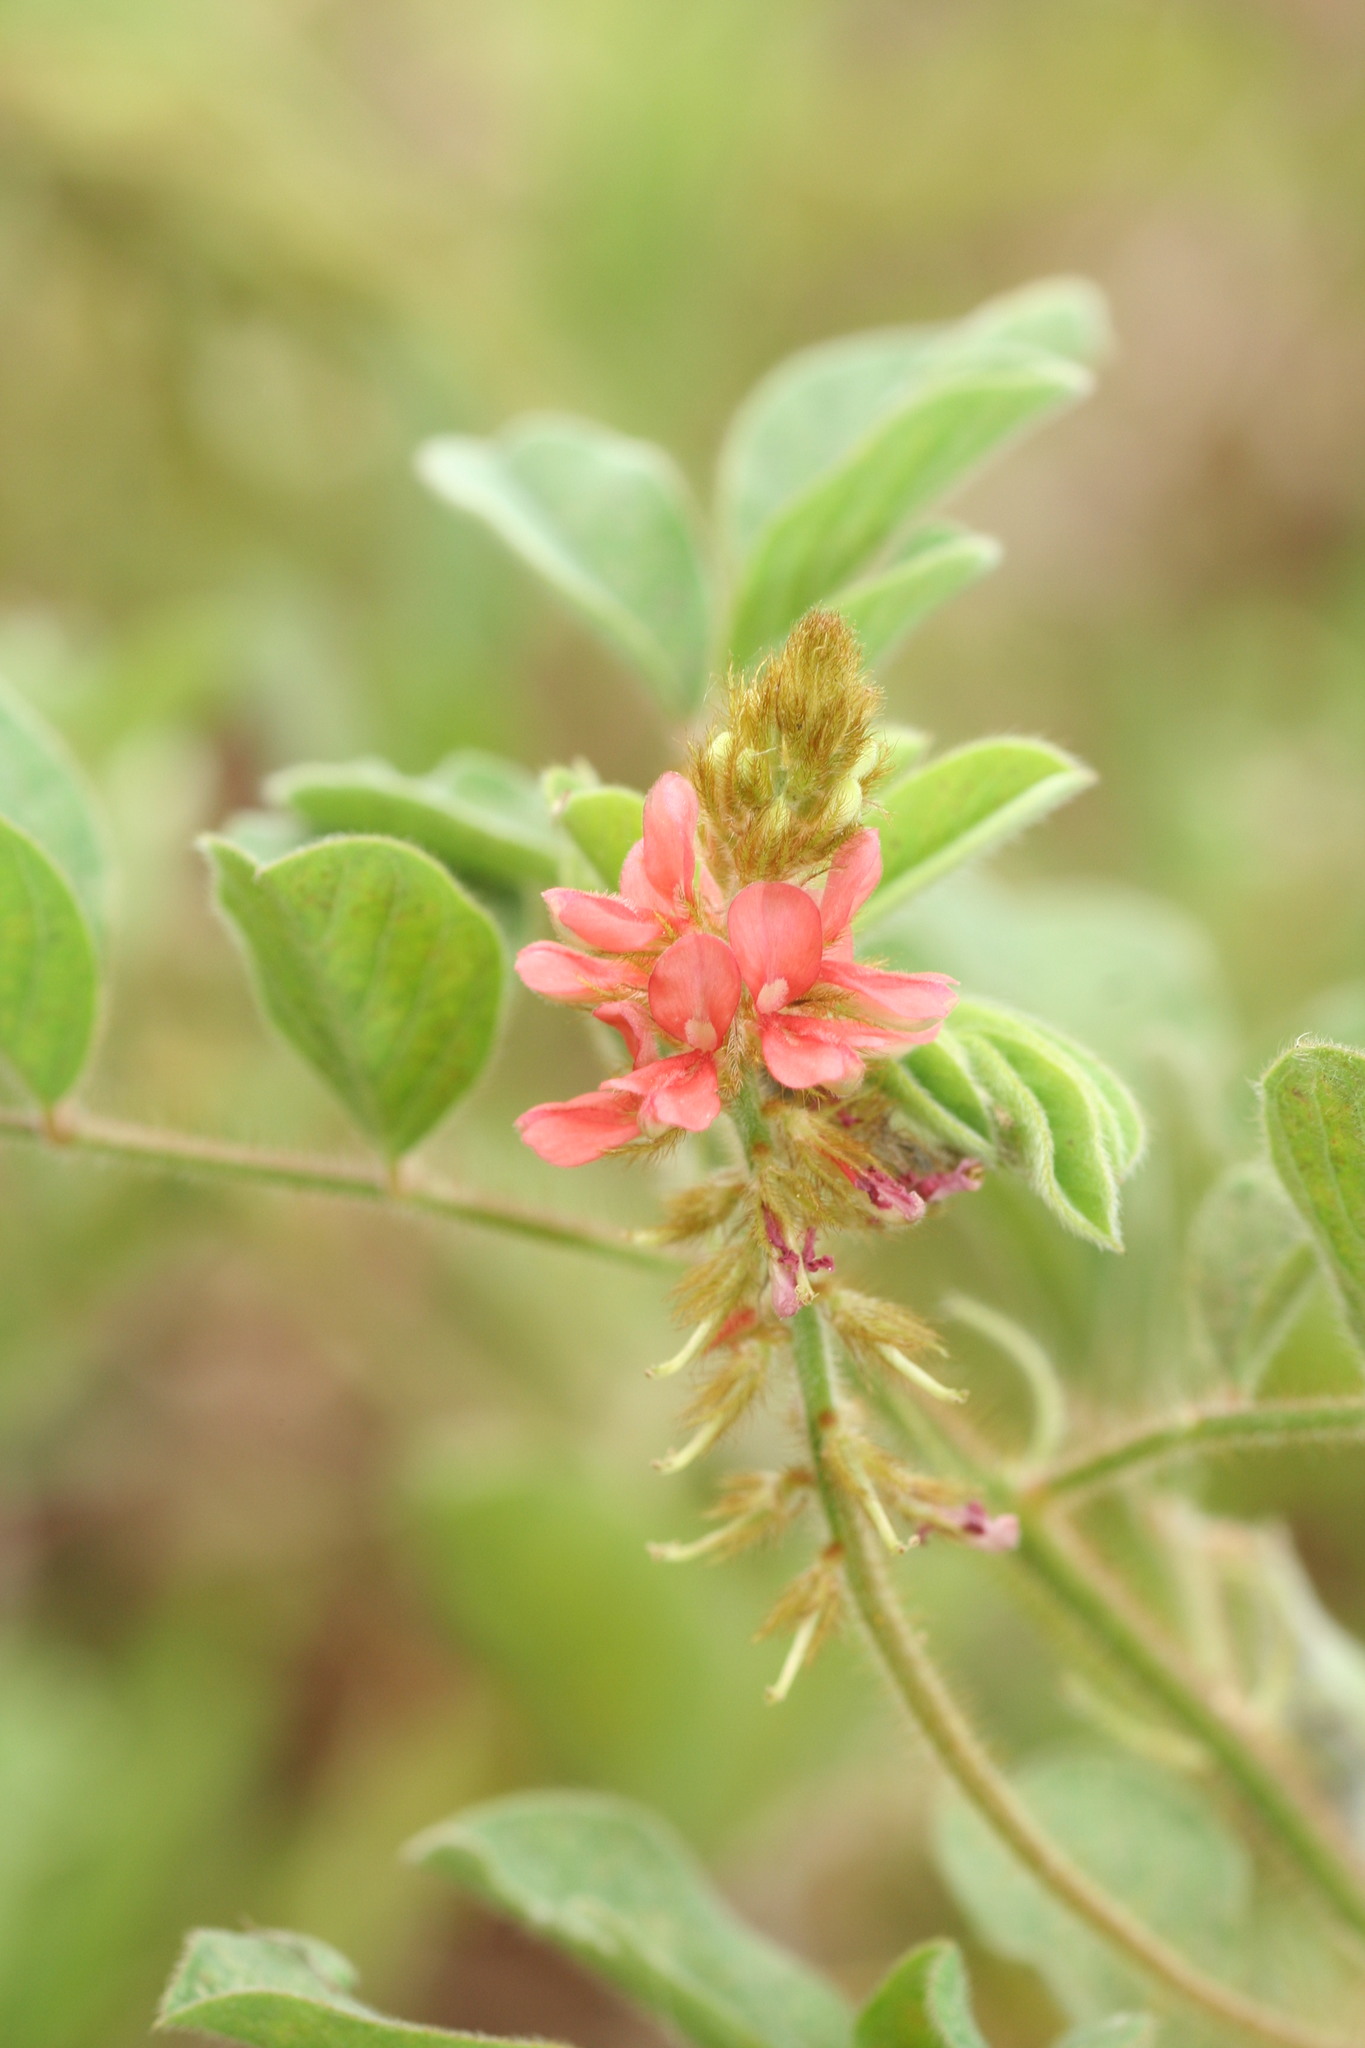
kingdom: Plantae
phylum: Tracheophyta
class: Magnoliopsida
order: Fabales
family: Fabaceae
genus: Indigofera
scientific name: Indigofera hirsuta
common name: Hairy indigo
